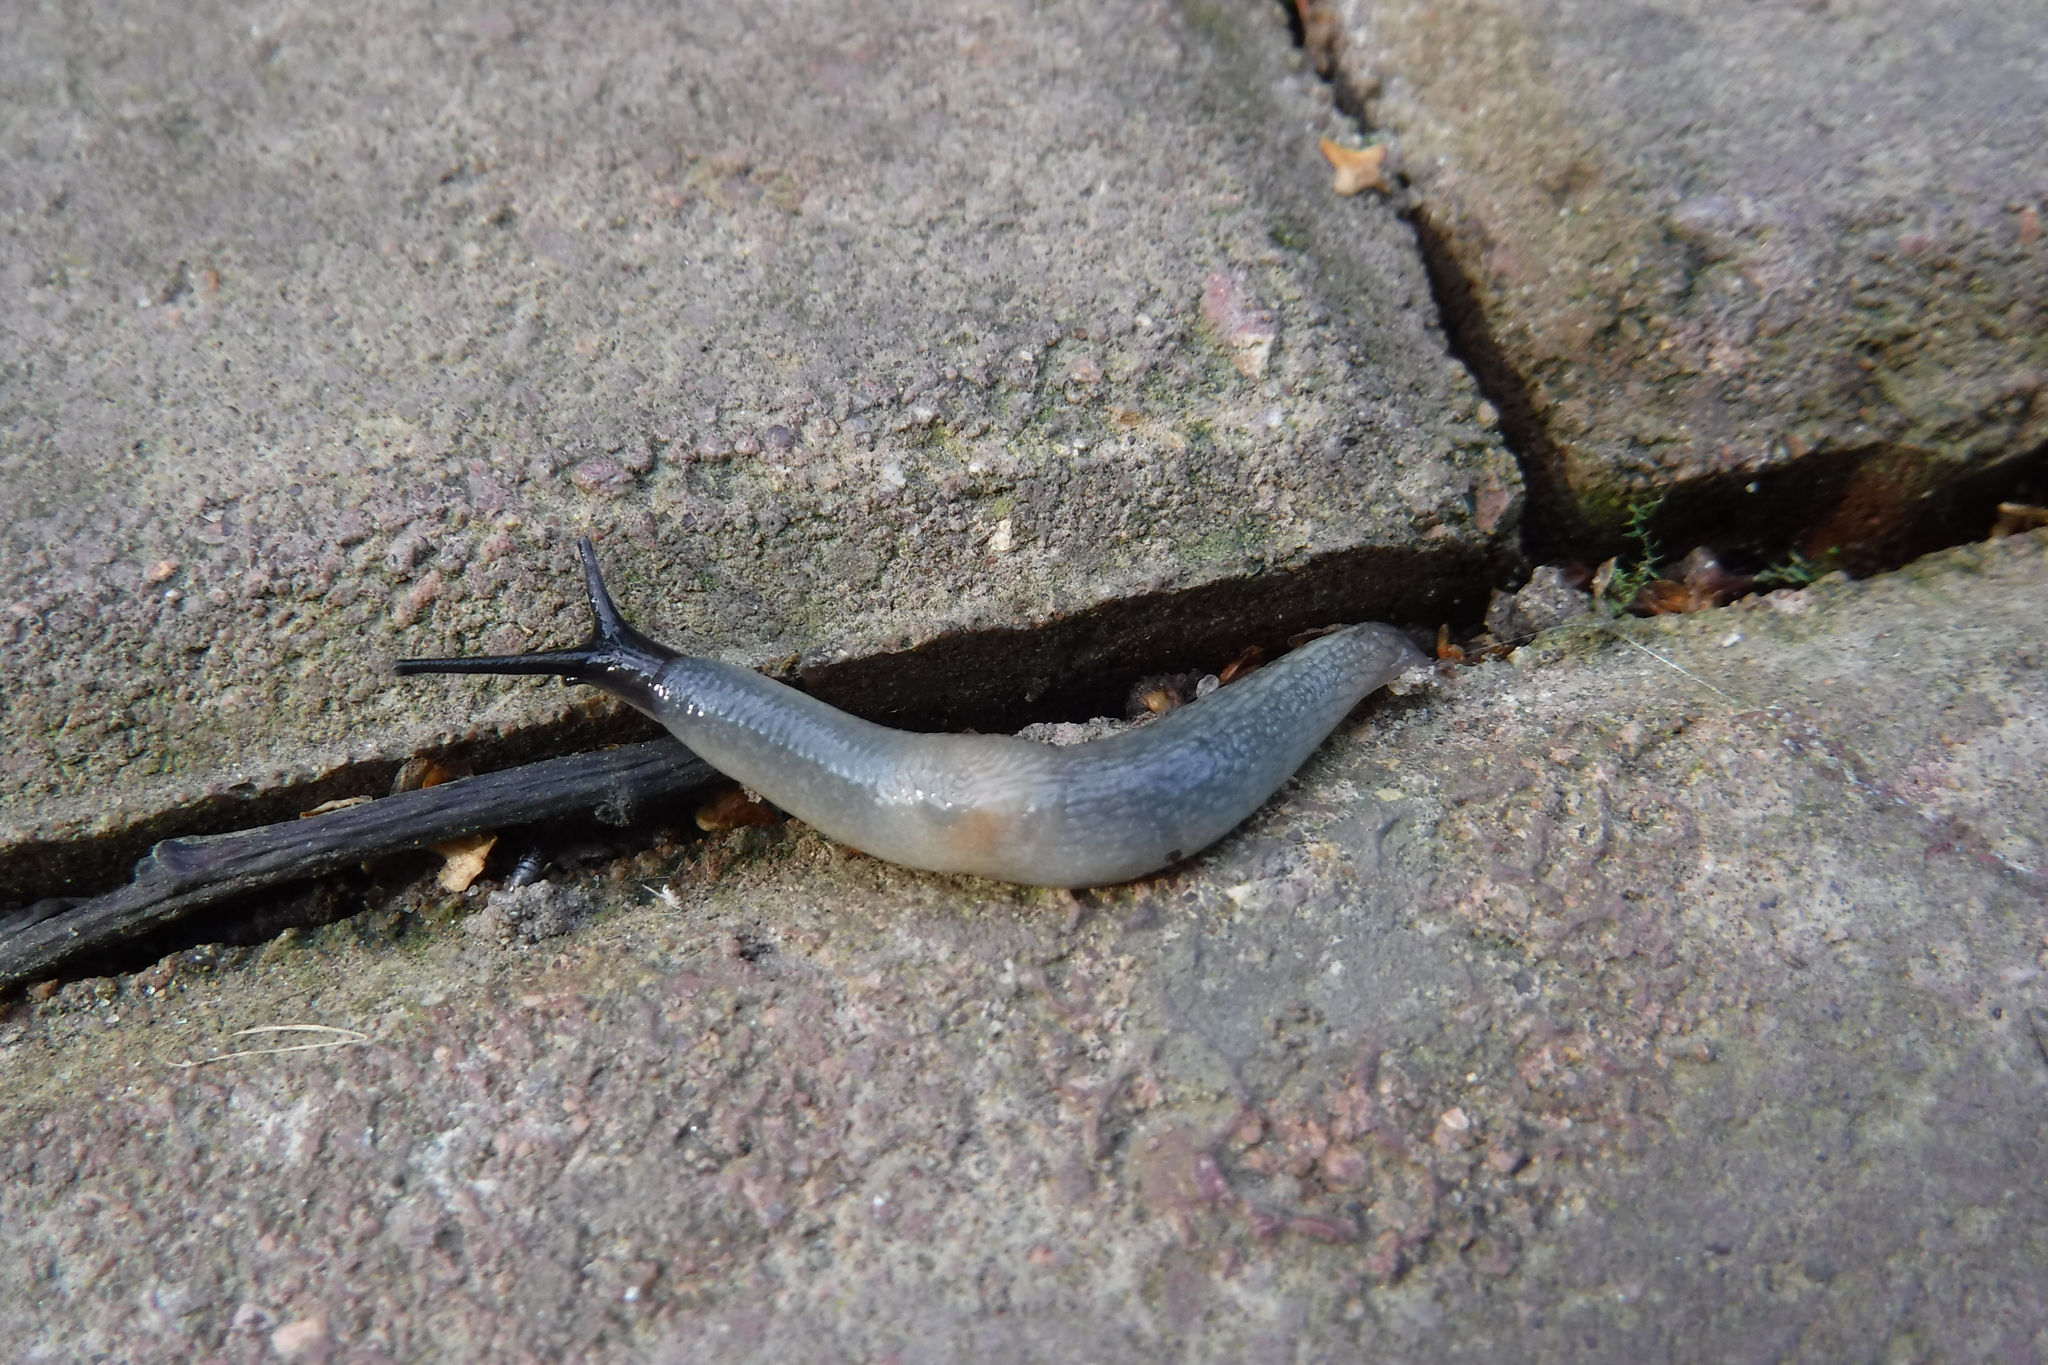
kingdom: Animalia
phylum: Mollusca
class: Gastropoda
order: Stylommatophora
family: Agriolimacidae
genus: Krynickillus
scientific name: Krynickillus melanocephalus
